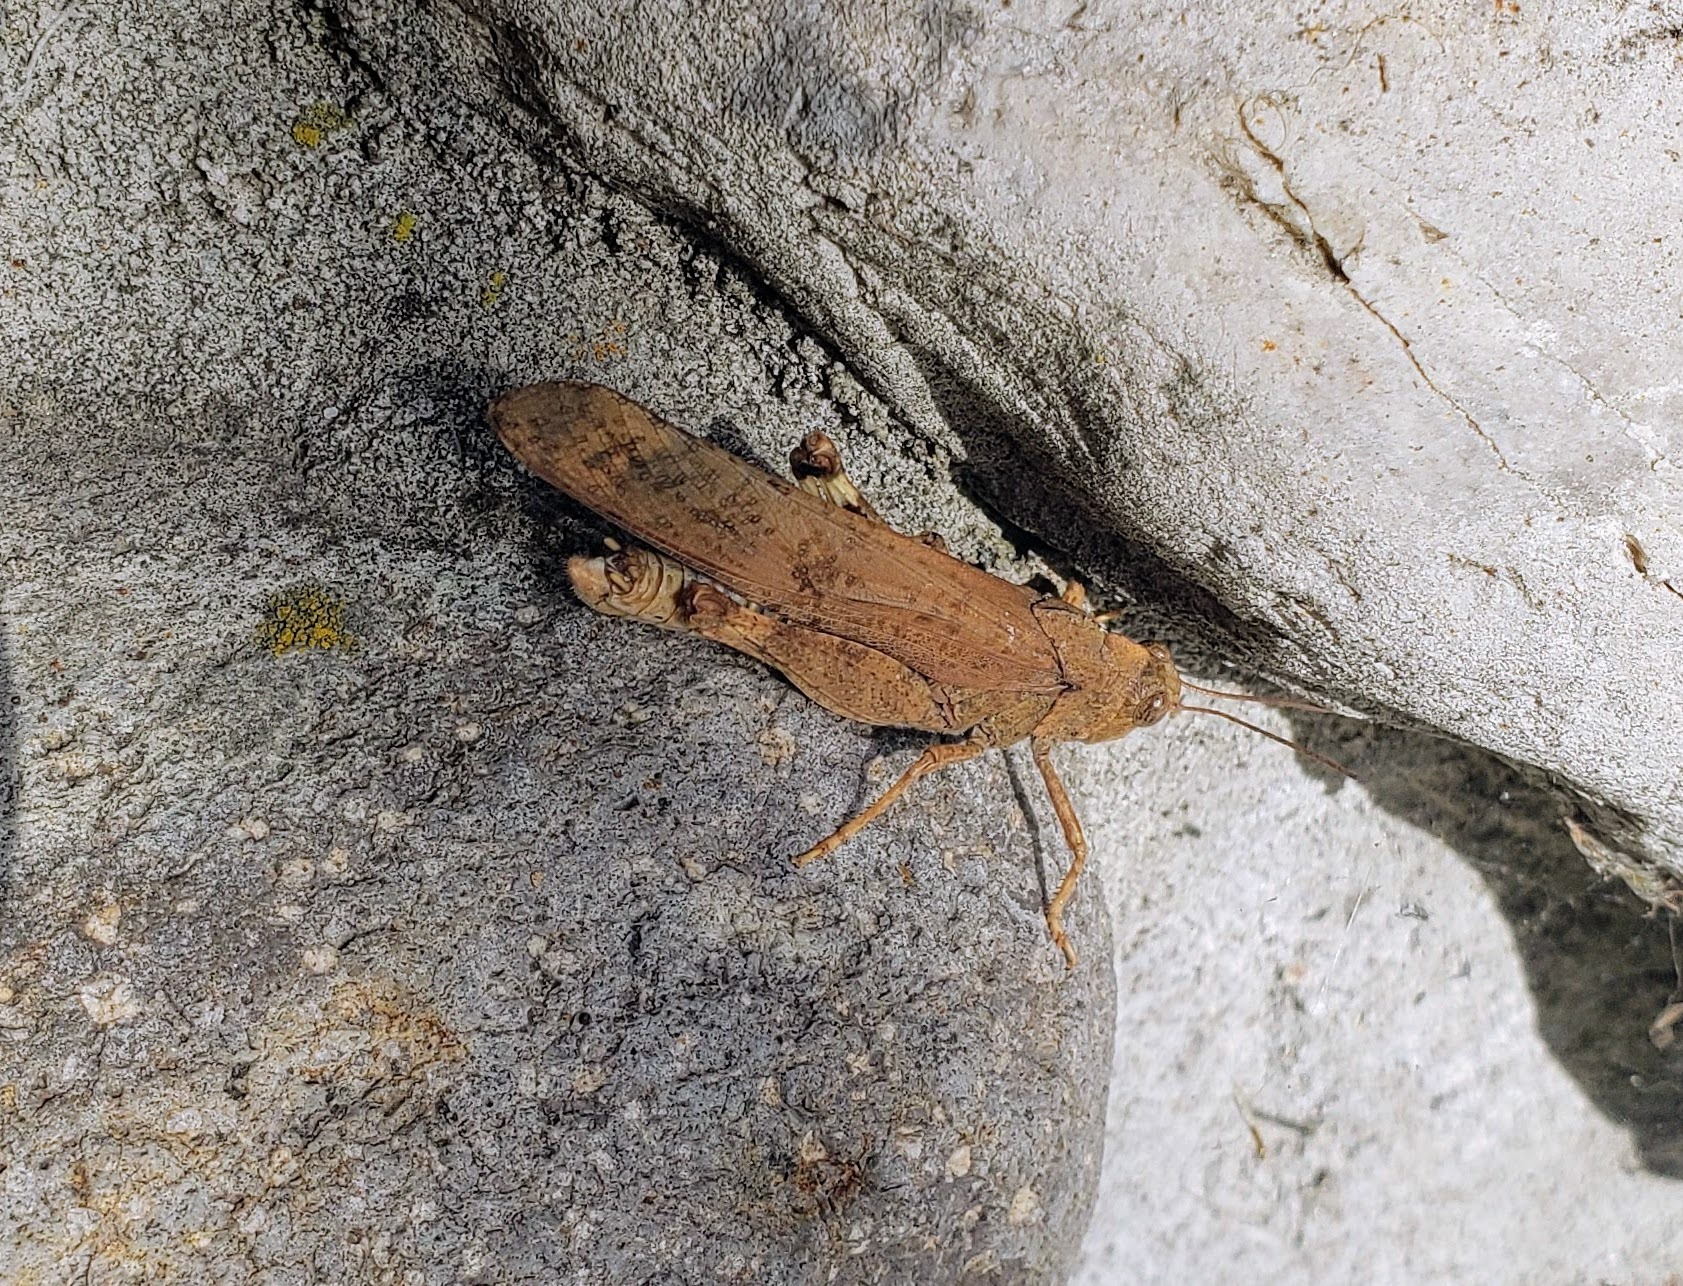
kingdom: Animalia
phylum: Arthropoda
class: Insecta
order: Orthoptera
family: Acrididae
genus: Dissosteira
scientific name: Dissosteira carolina
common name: Carolina grasshopper
